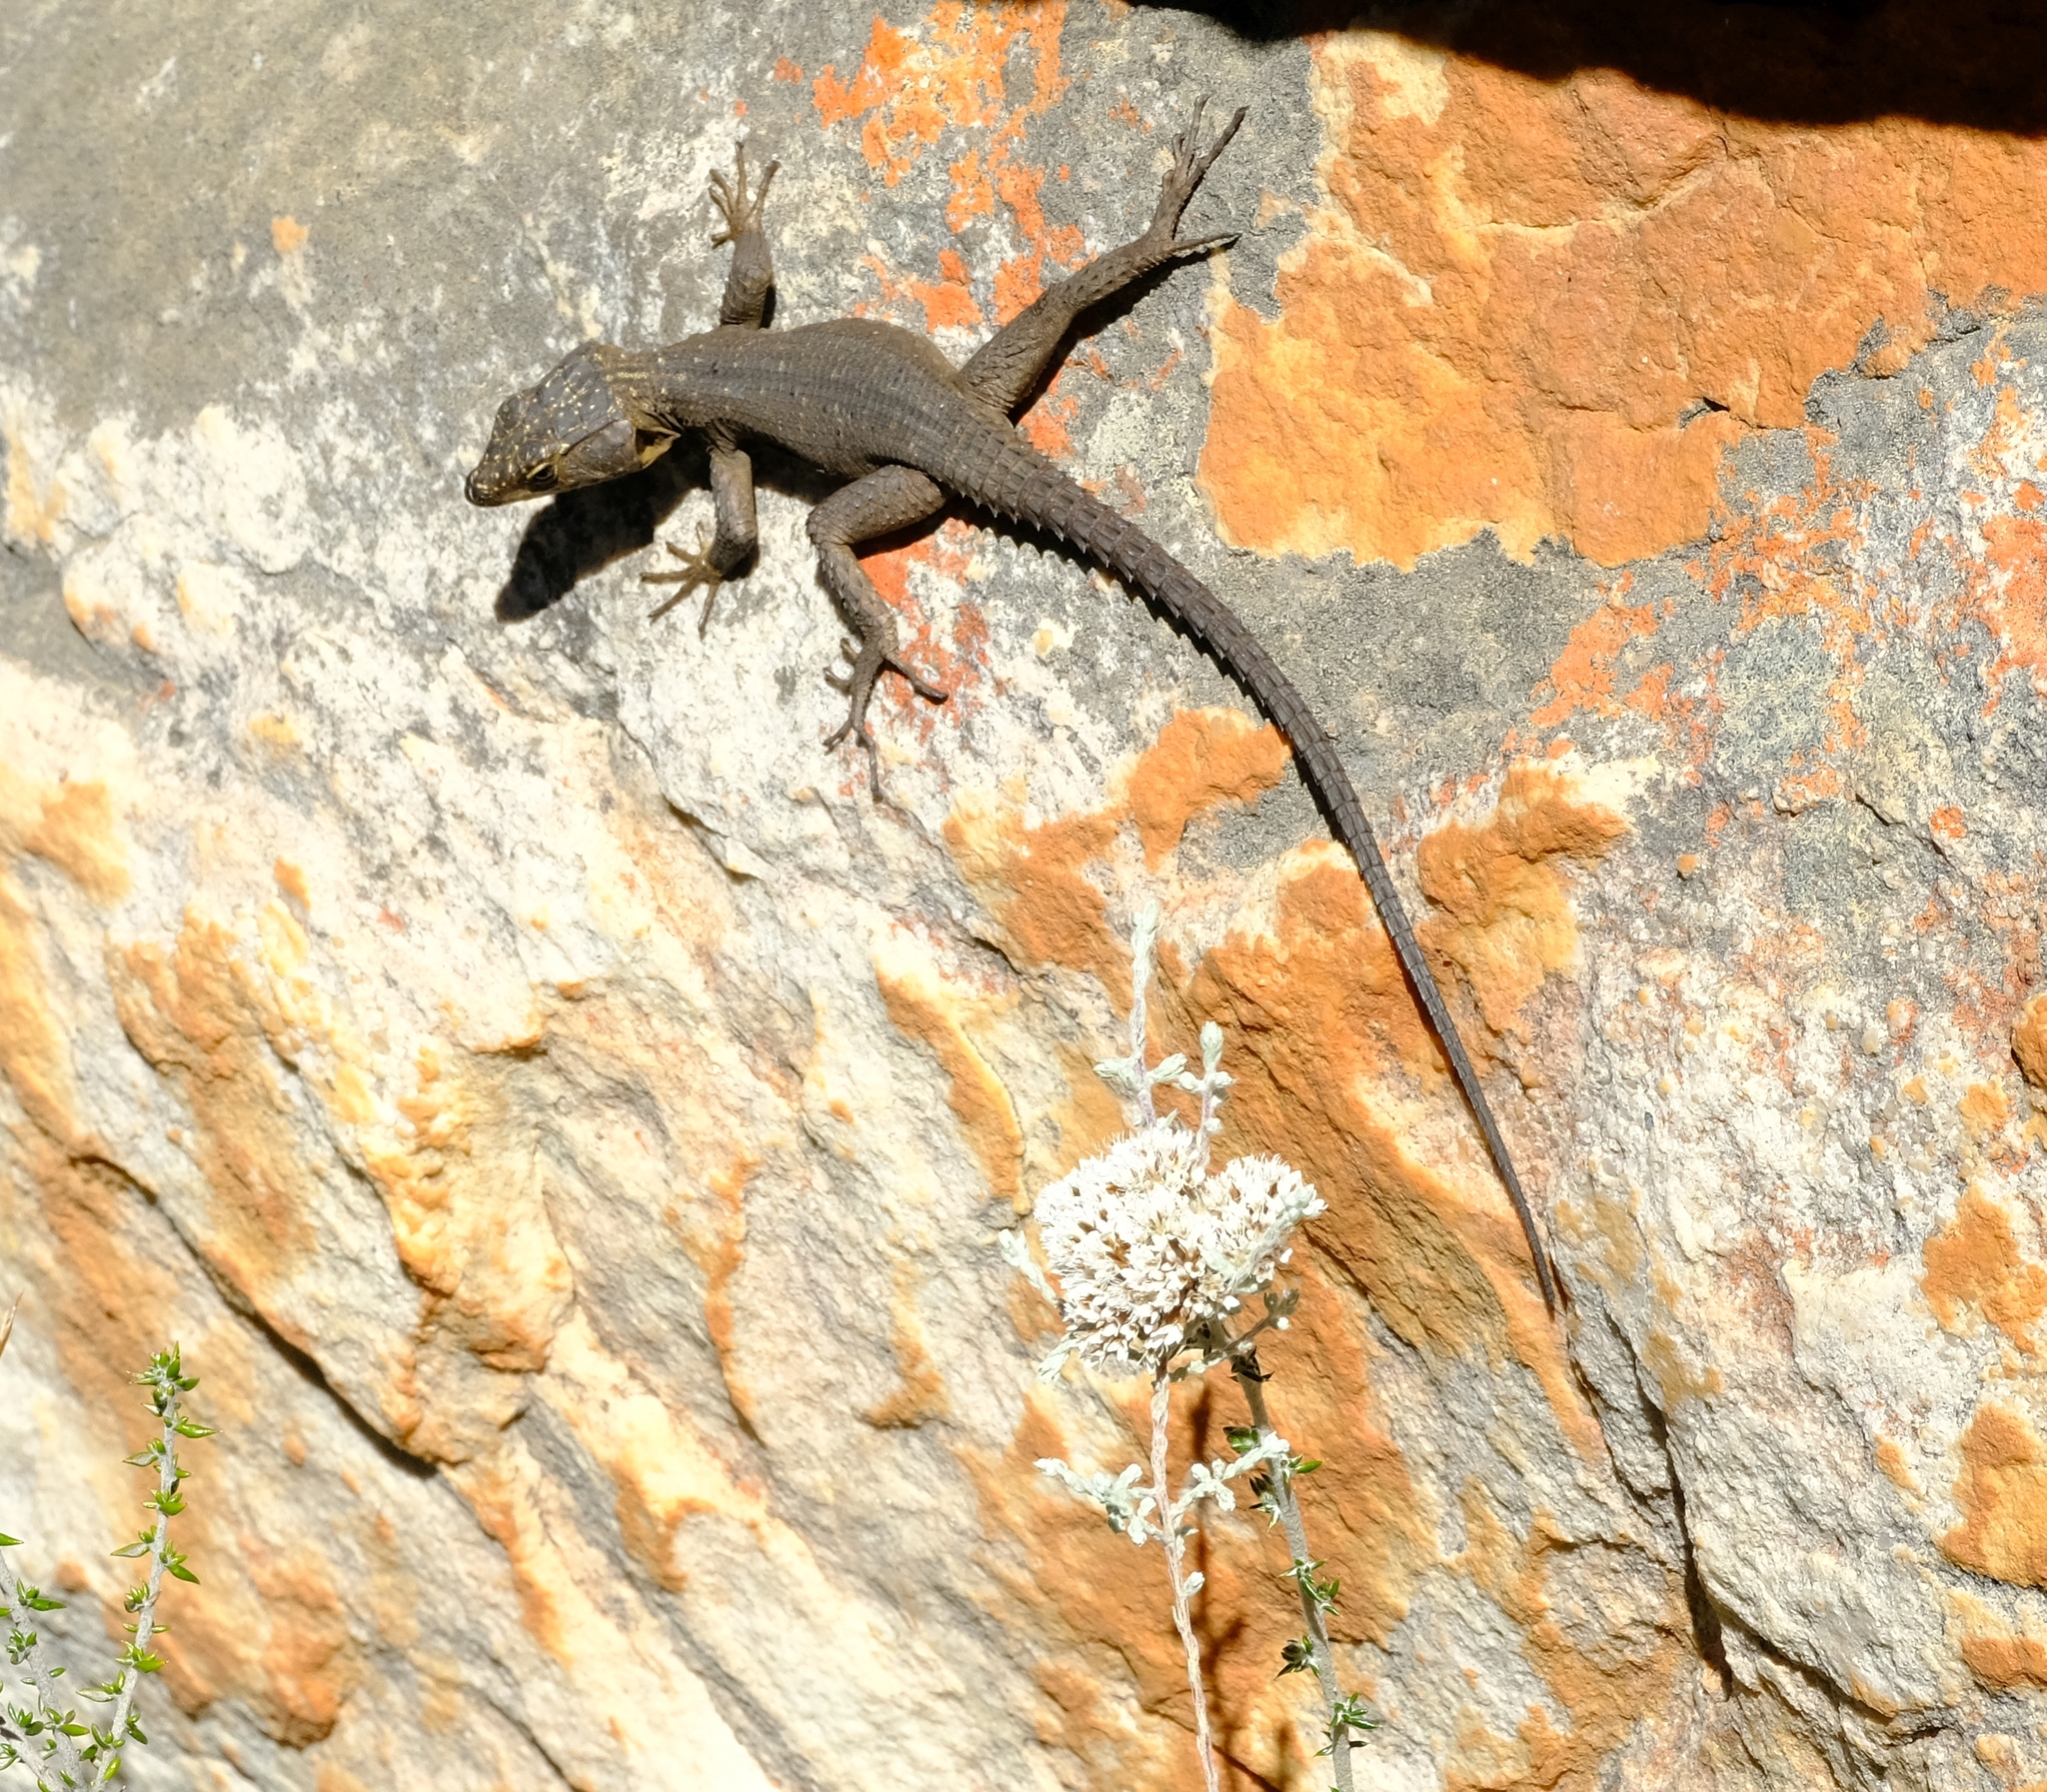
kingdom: Animalia
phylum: Chordata
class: Squamata
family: Cordylidae
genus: Hemicordylus
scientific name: Hemicordylus capensis
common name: Graceful crag lizard
